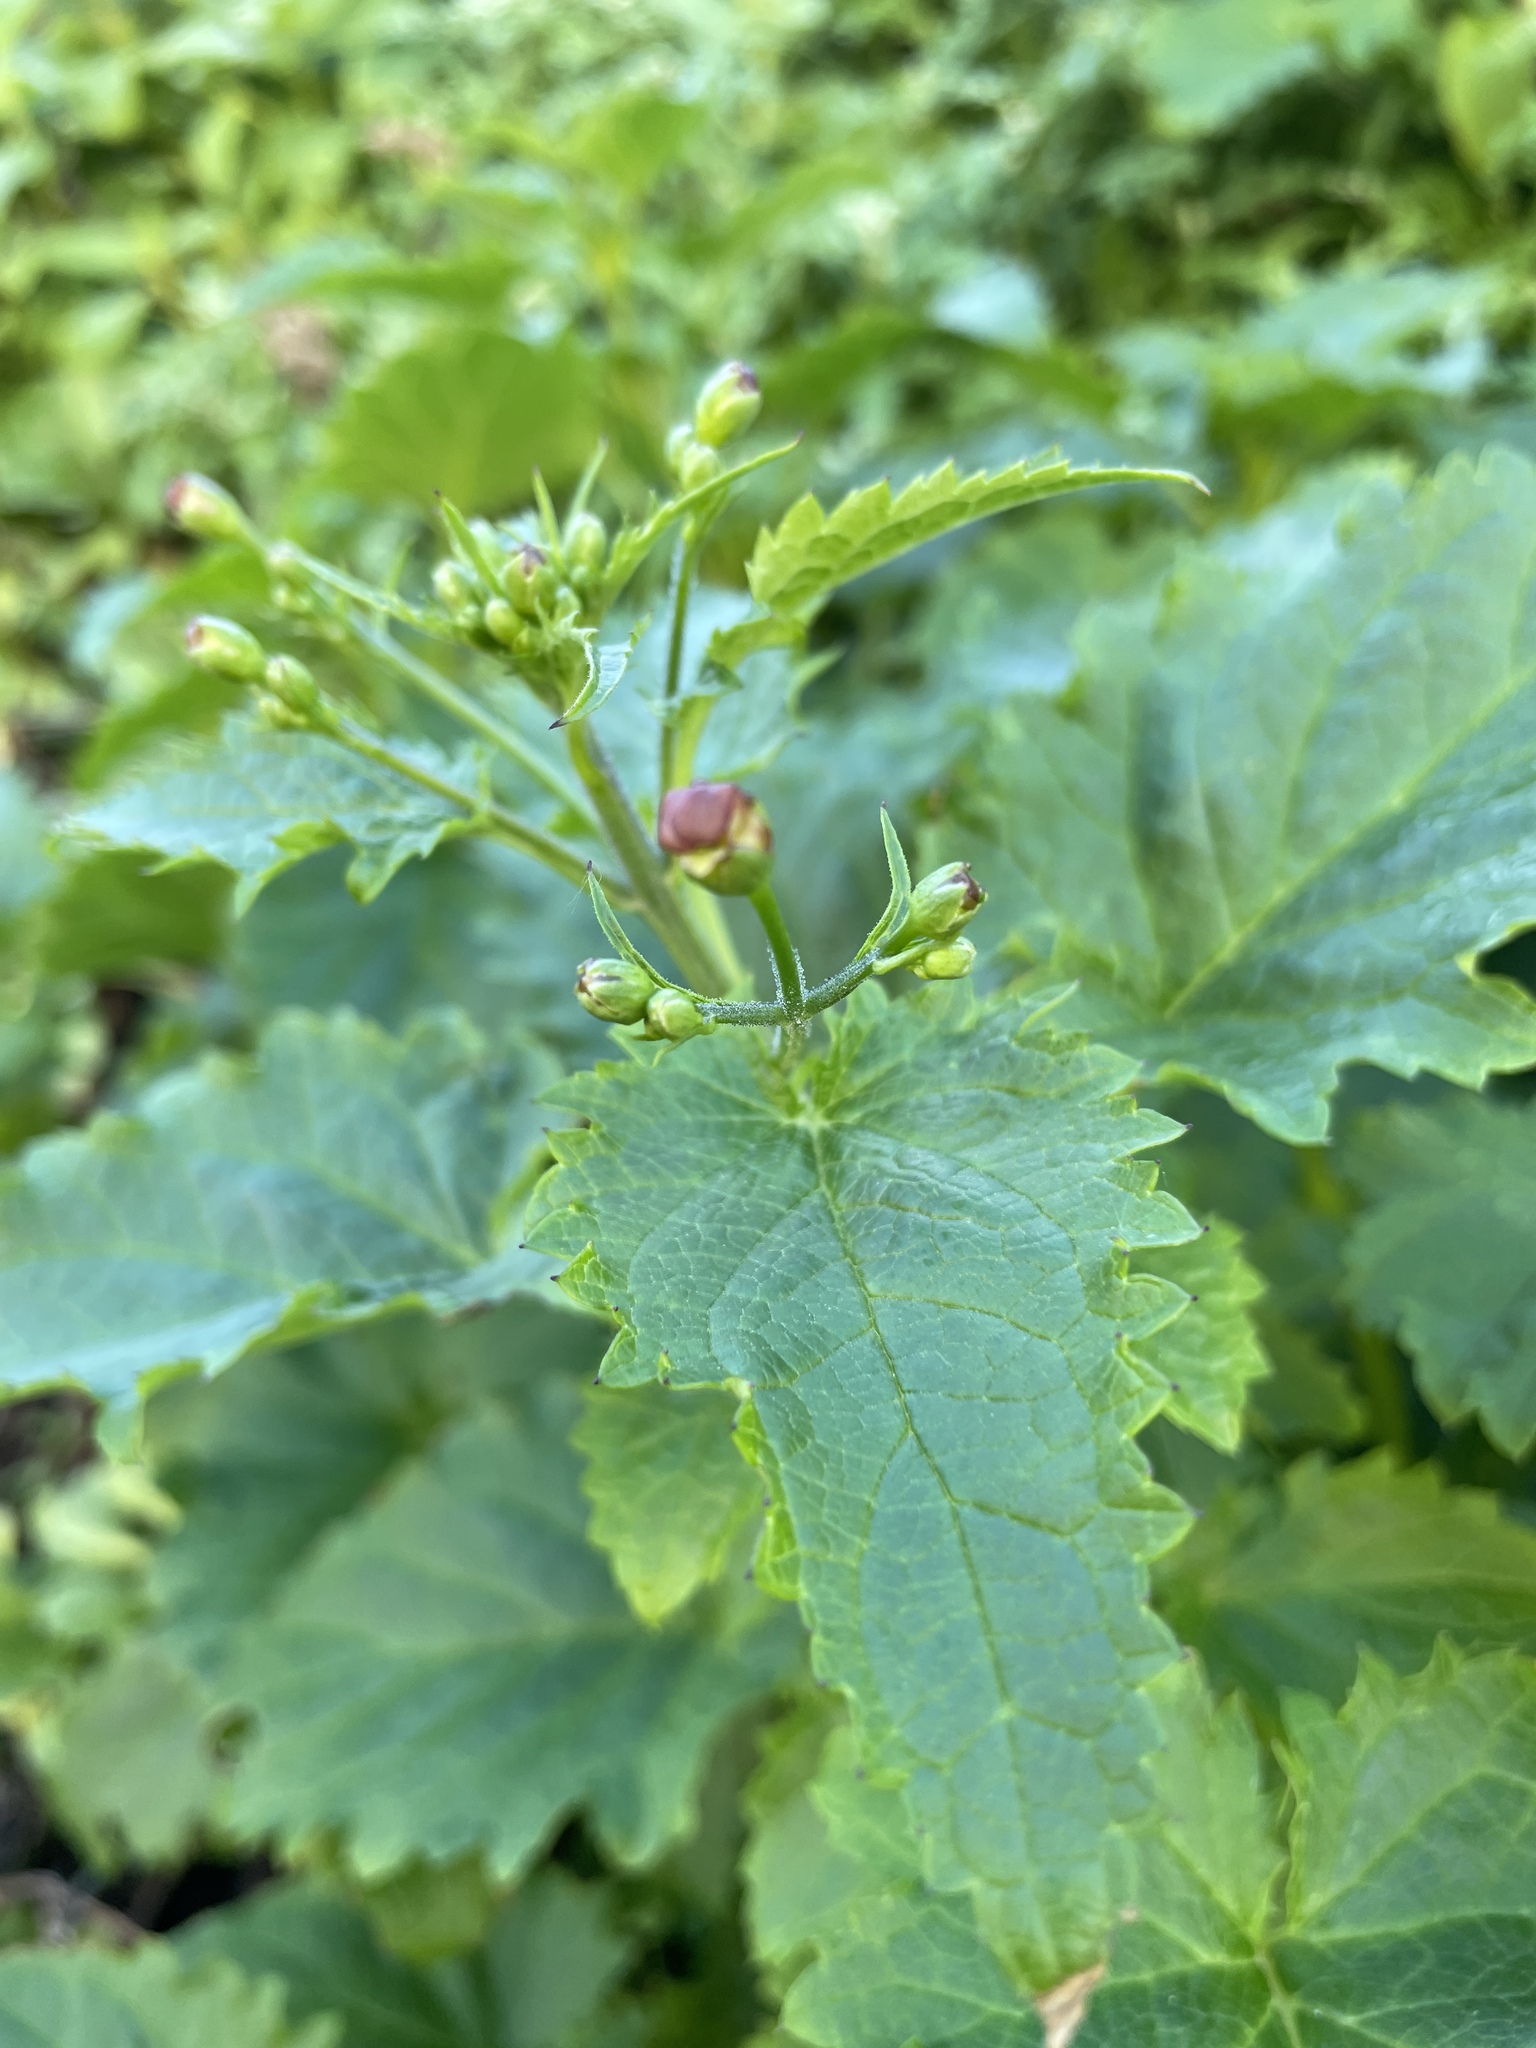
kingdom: Plantae
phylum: Tracheophyta
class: Magnoliopsida
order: Lamiales
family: Scrophulariaceae
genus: Scrophularia
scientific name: Scrophularia californica
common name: California figwort
